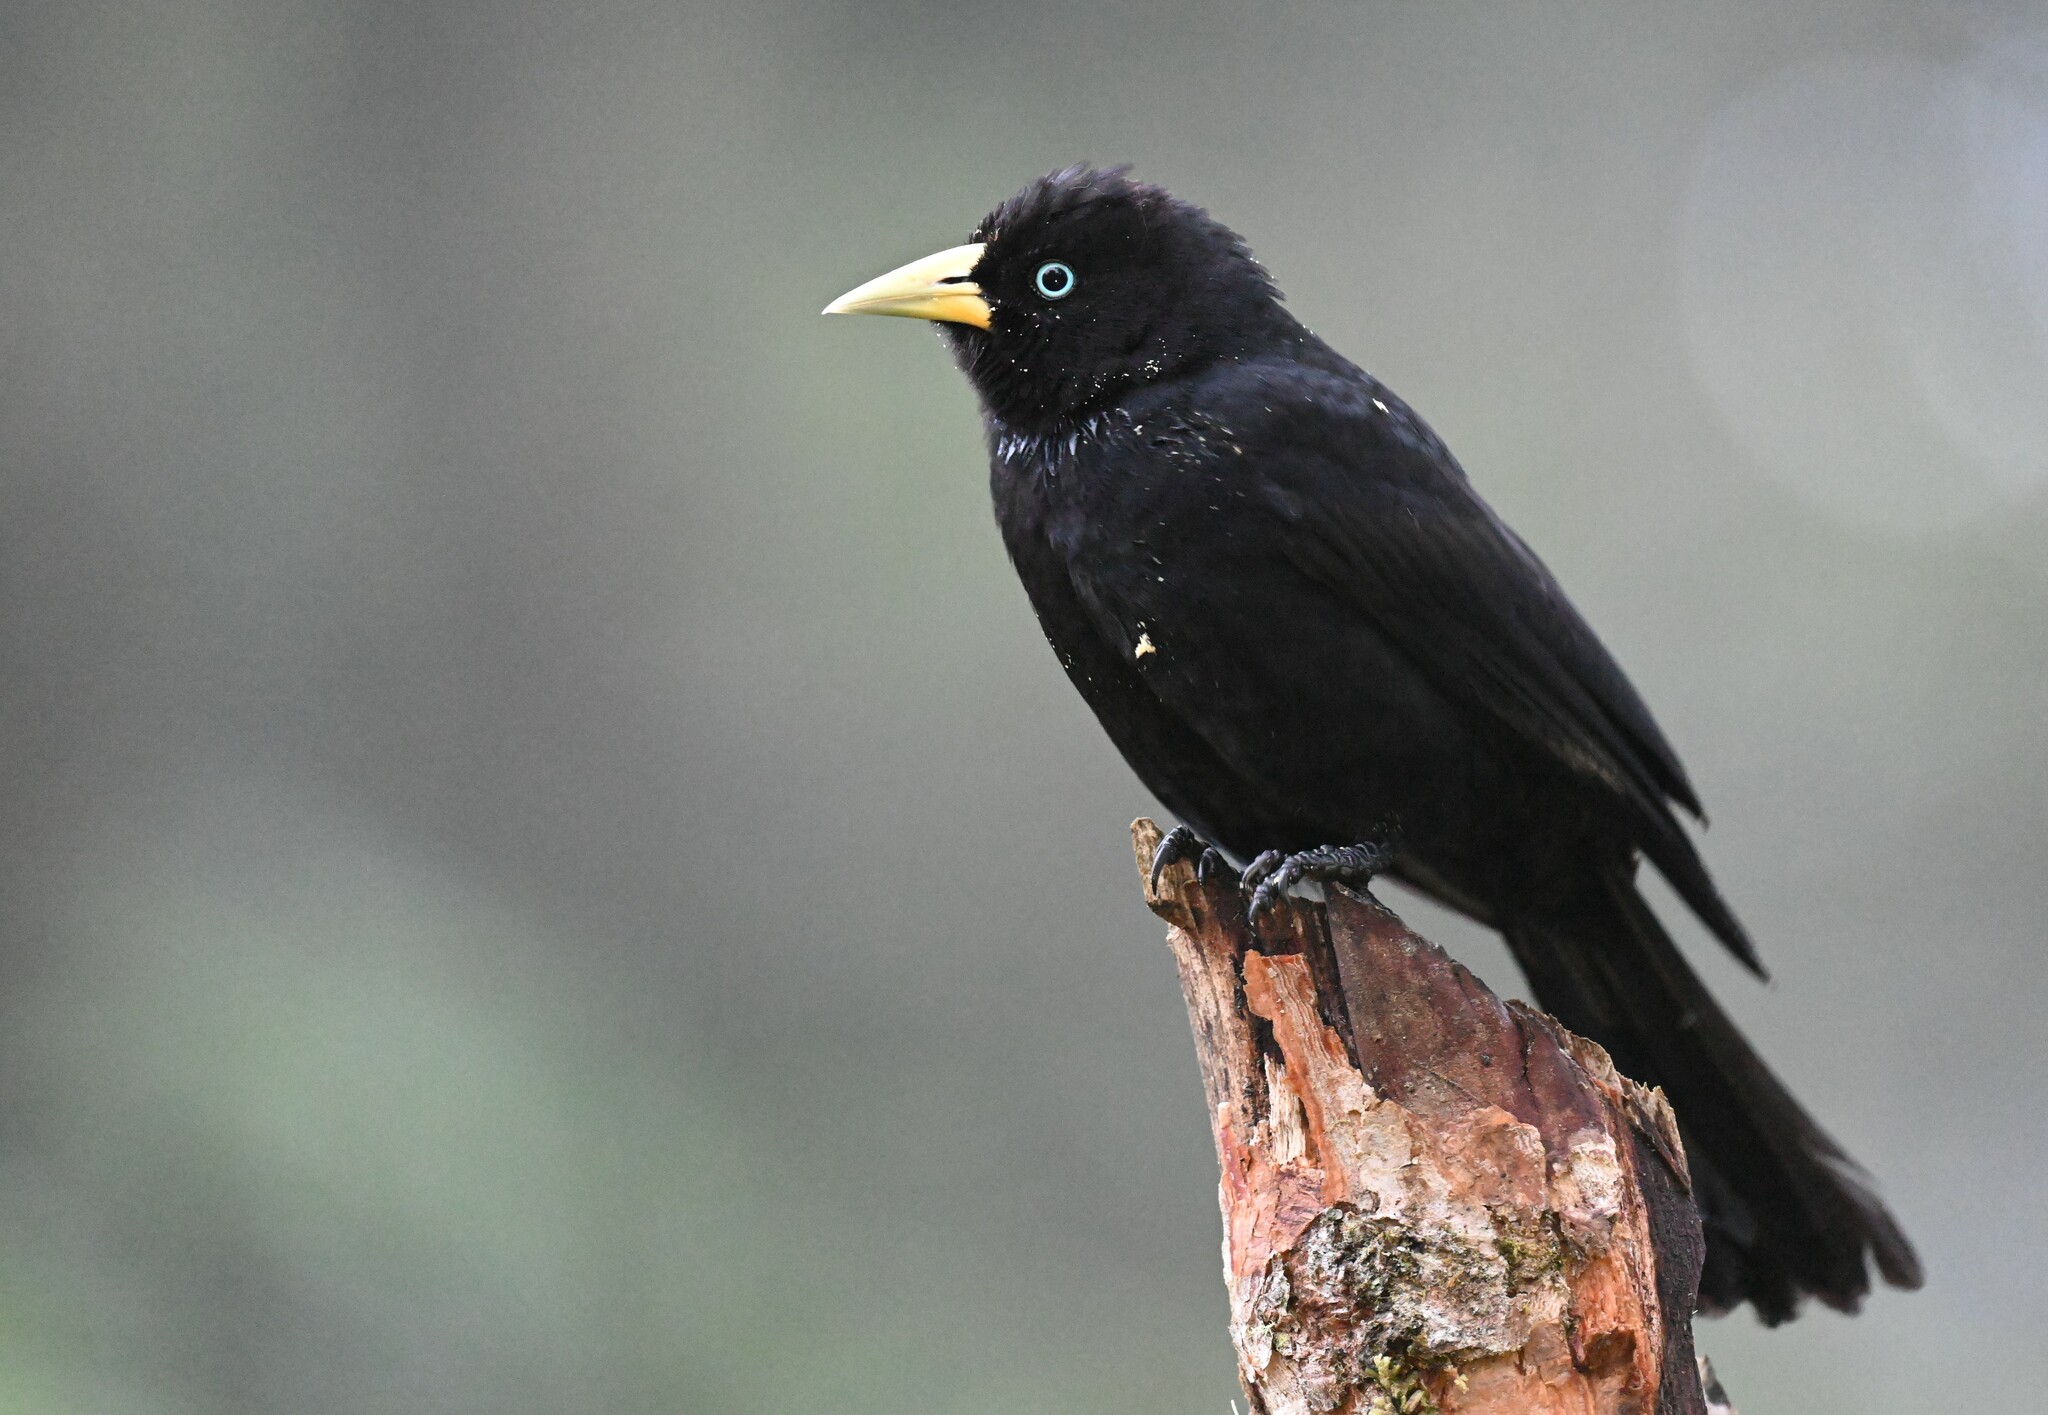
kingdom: Animalia
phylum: Chordata
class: Aves
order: Passeriformes
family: Icteridae
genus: Cacicus
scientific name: Cacicus uropygialis
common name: Scarlet-rumped cacique
